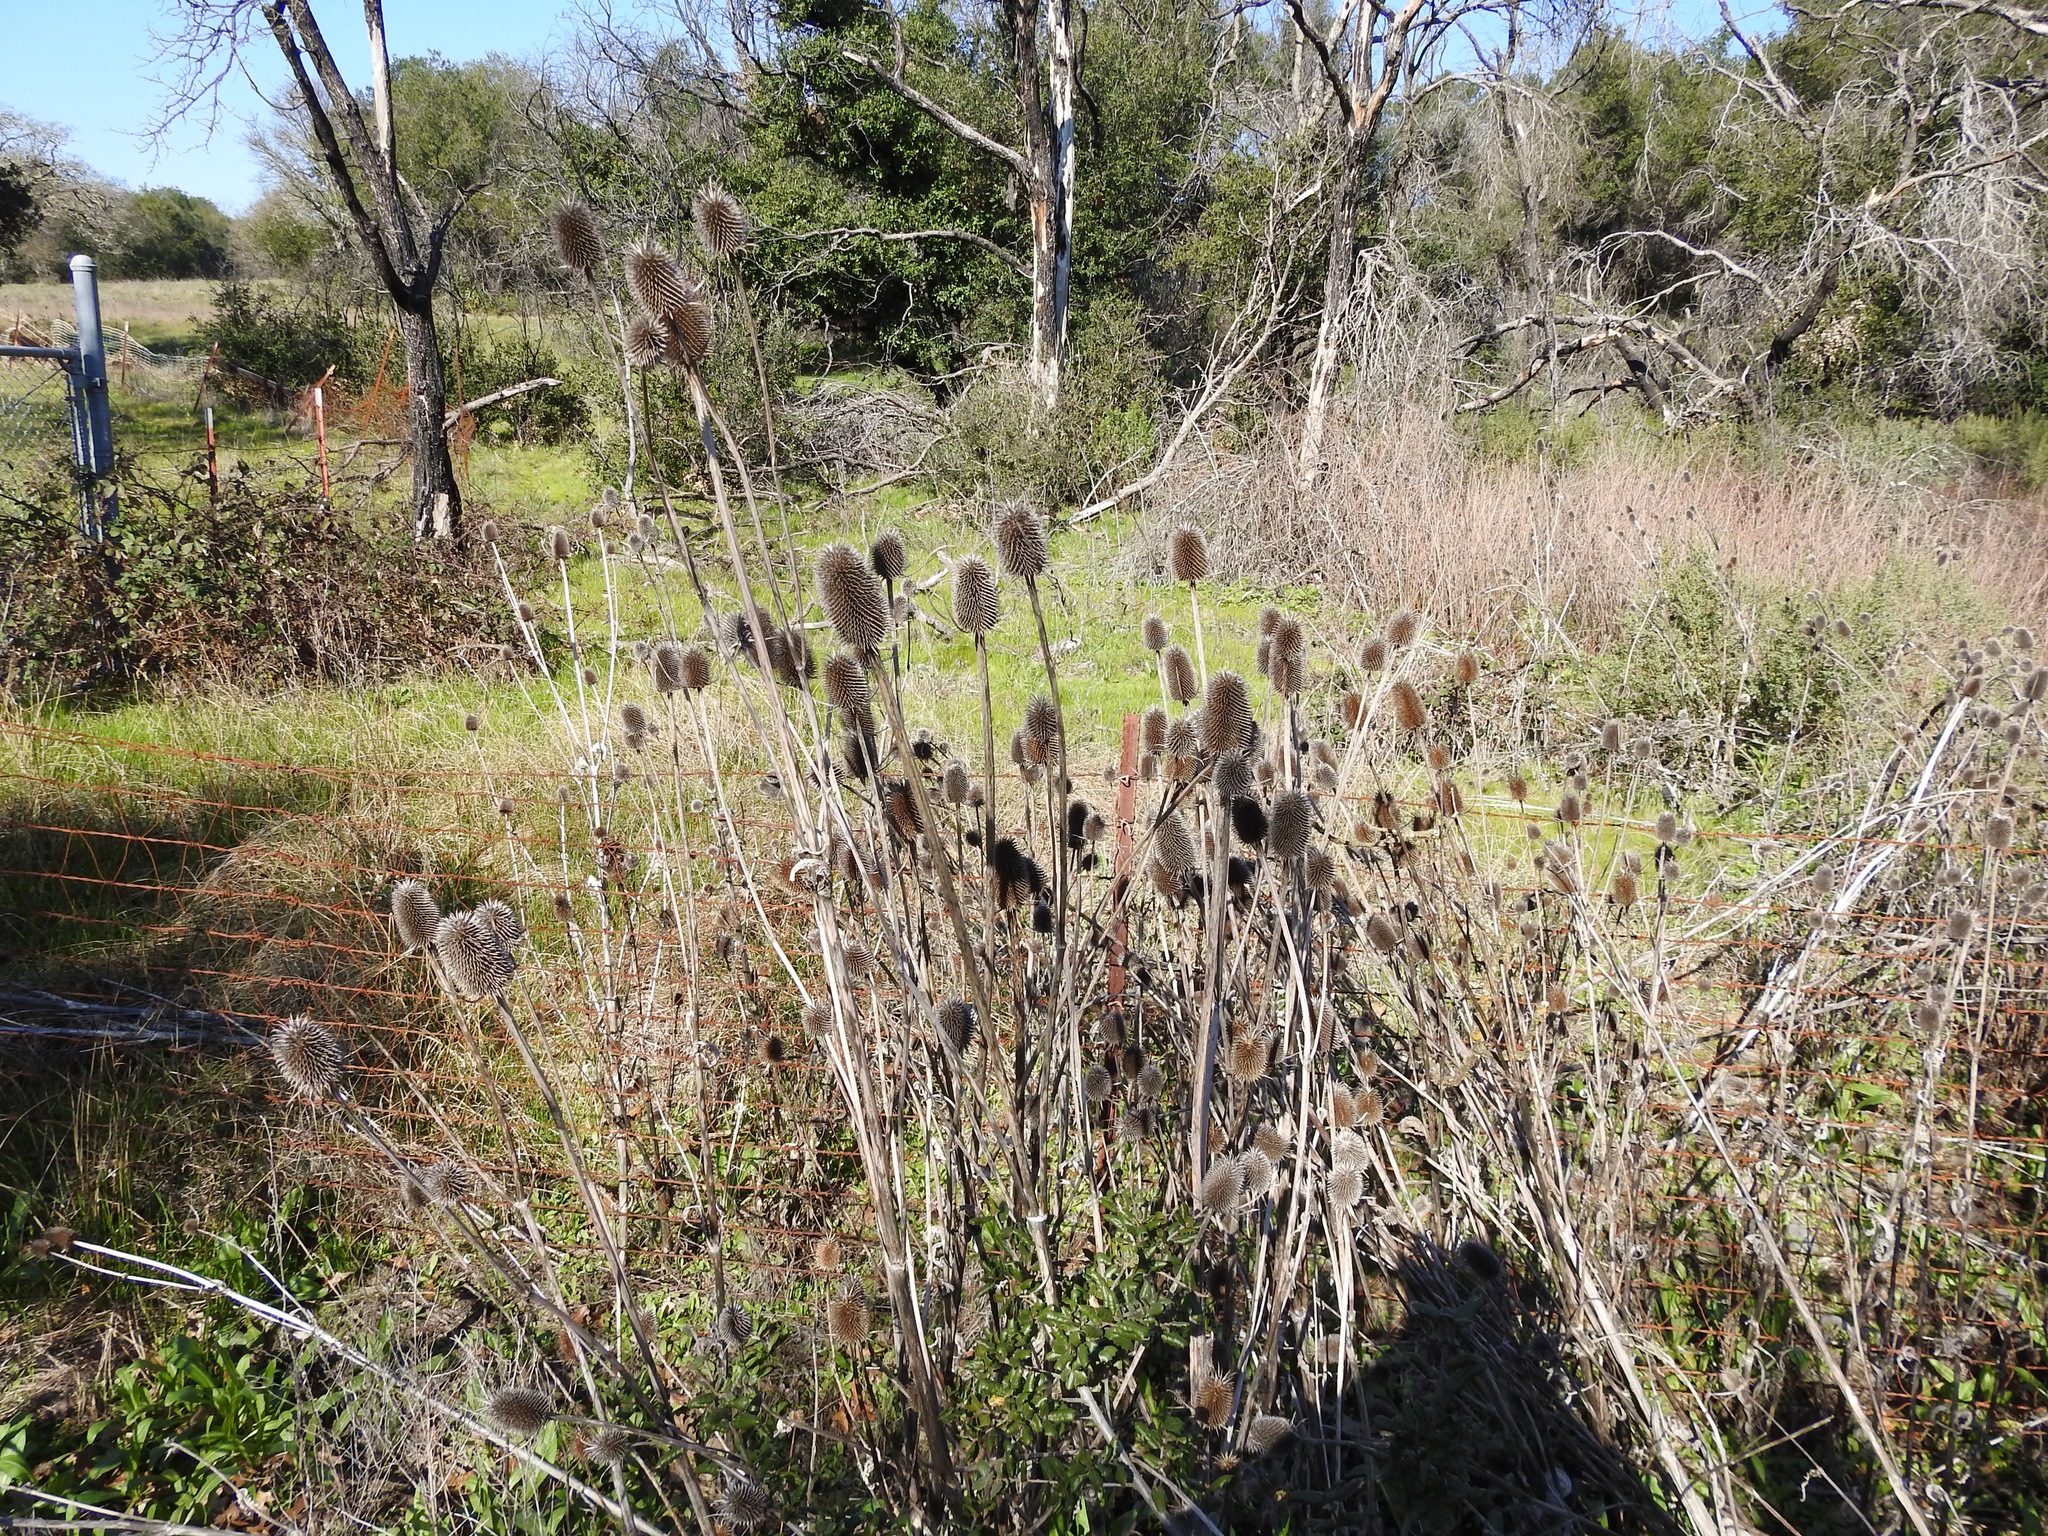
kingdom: Plantae
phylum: Tracheophyta
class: Magnoliopsida
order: Dipsacales
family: Caprifoliaceae
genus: Dipsacus
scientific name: Dipsacus sativus
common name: Fuller's teasel
